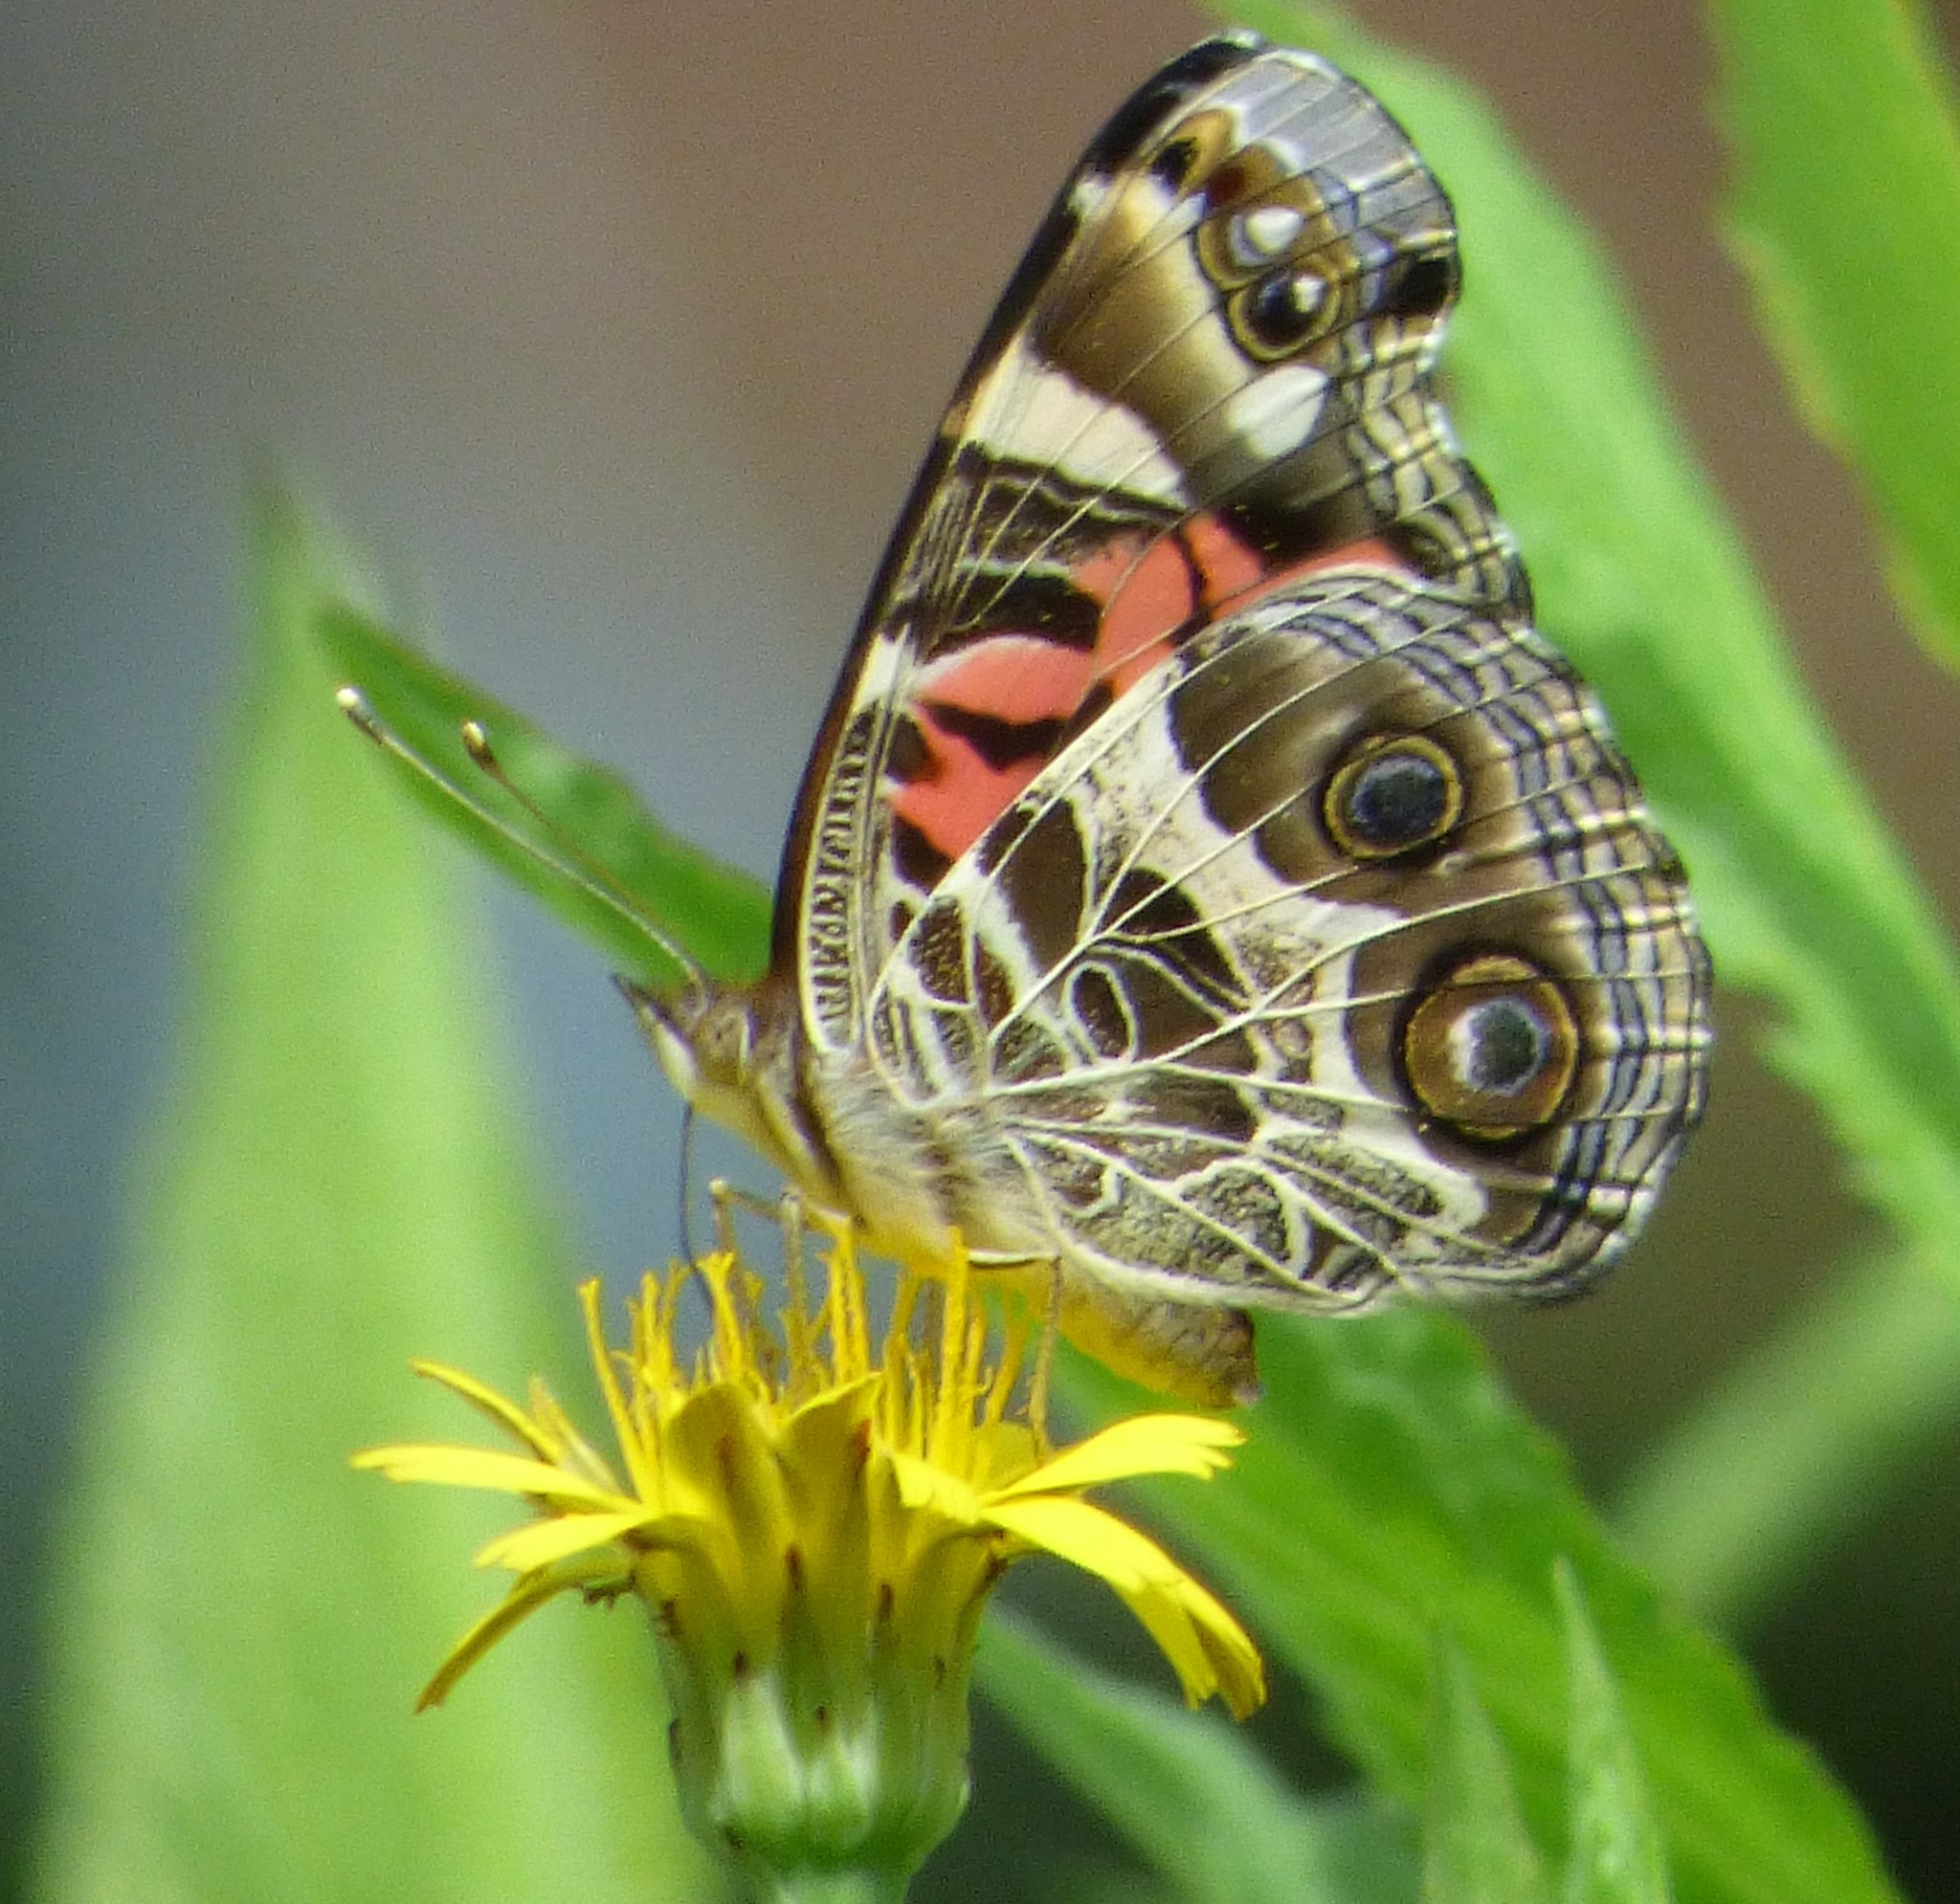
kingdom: Animalia
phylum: Arthropoda
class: Insecta
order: Lepidoptera
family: Nymphalidae
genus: Vanessa
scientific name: Vanessa virginiensis
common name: American lady
